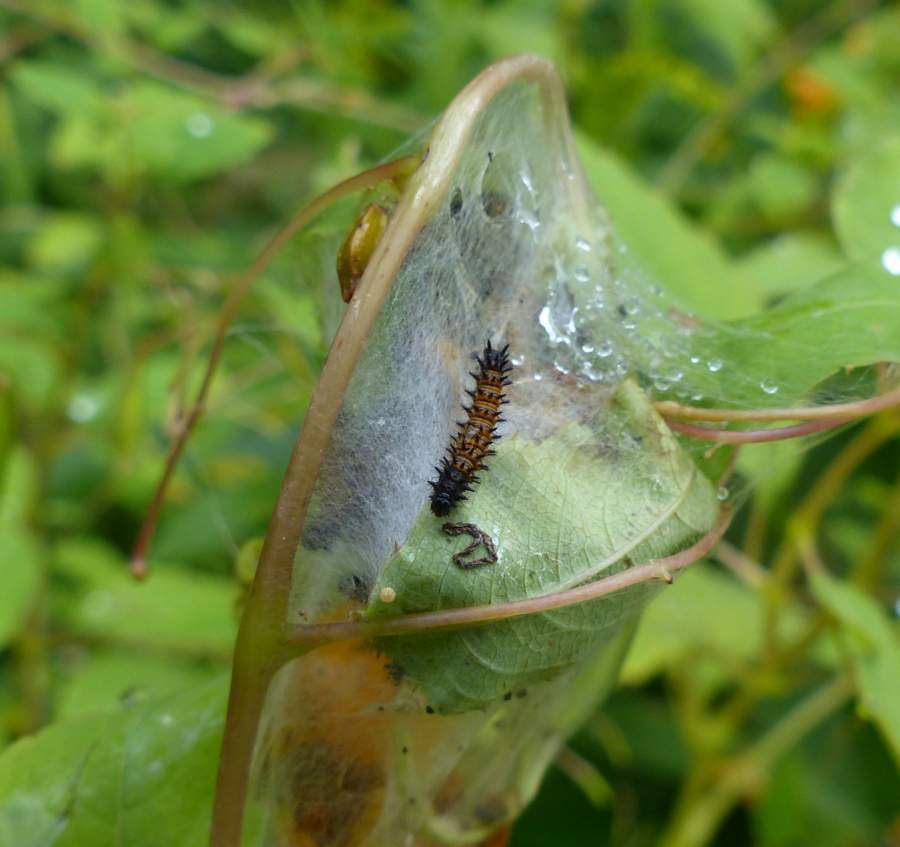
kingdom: Animalia
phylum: Arthropoda
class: Insecta
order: Lepidoptera
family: Nymphalidae
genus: Euphydryas
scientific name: Euphydryas phaeton
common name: Baltimore checkerspot
